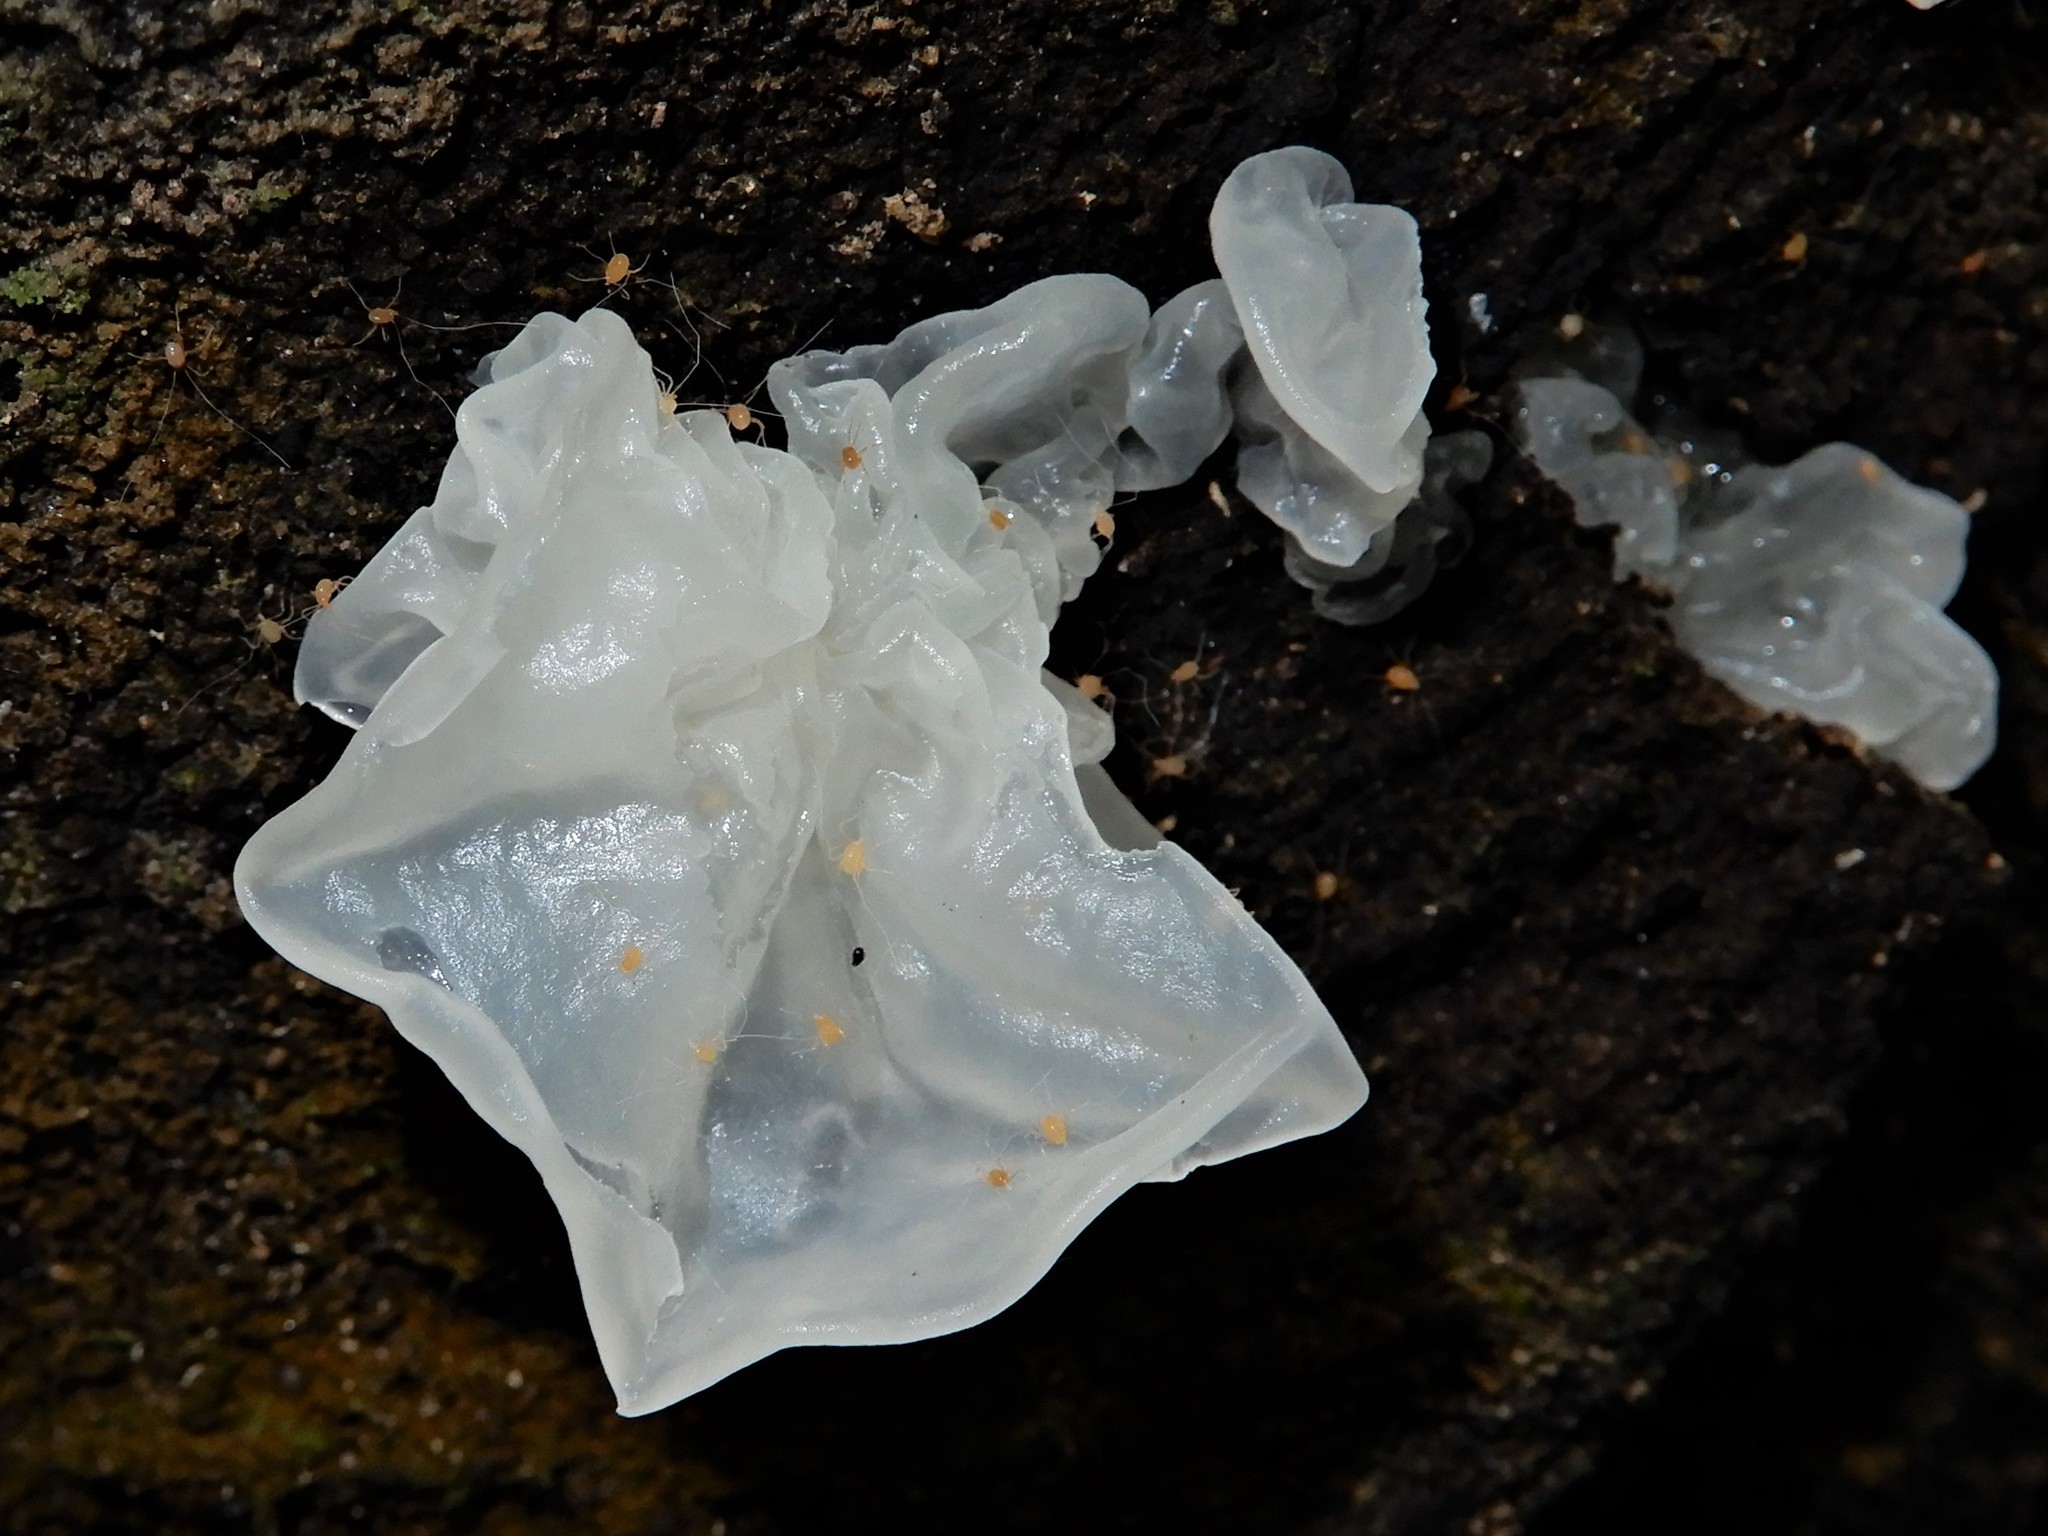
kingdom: Fungi
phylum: Basidiomycota
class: Tremellomycetes
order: Tremellales
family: Tremellaceae
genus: Tremella
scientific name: Tremella fuciformis
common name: Snow fungus
